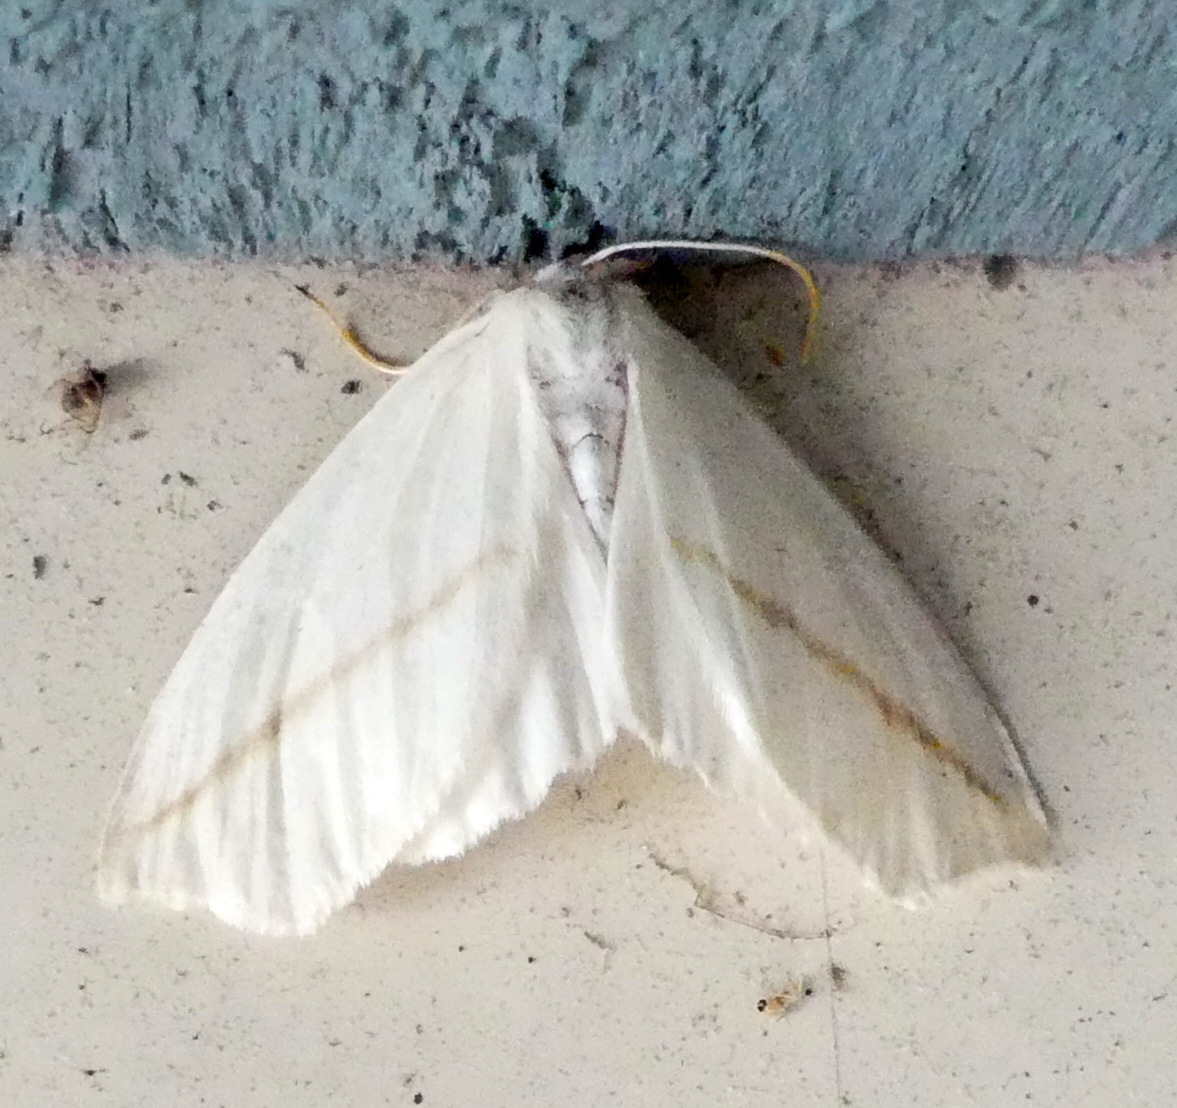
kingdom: Animalia
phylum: Arthropoda
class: Insecta
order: Lepidoptera
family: Geometridae
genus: Tetracis
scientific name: Tetracis cachexiata
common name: White slant-line
